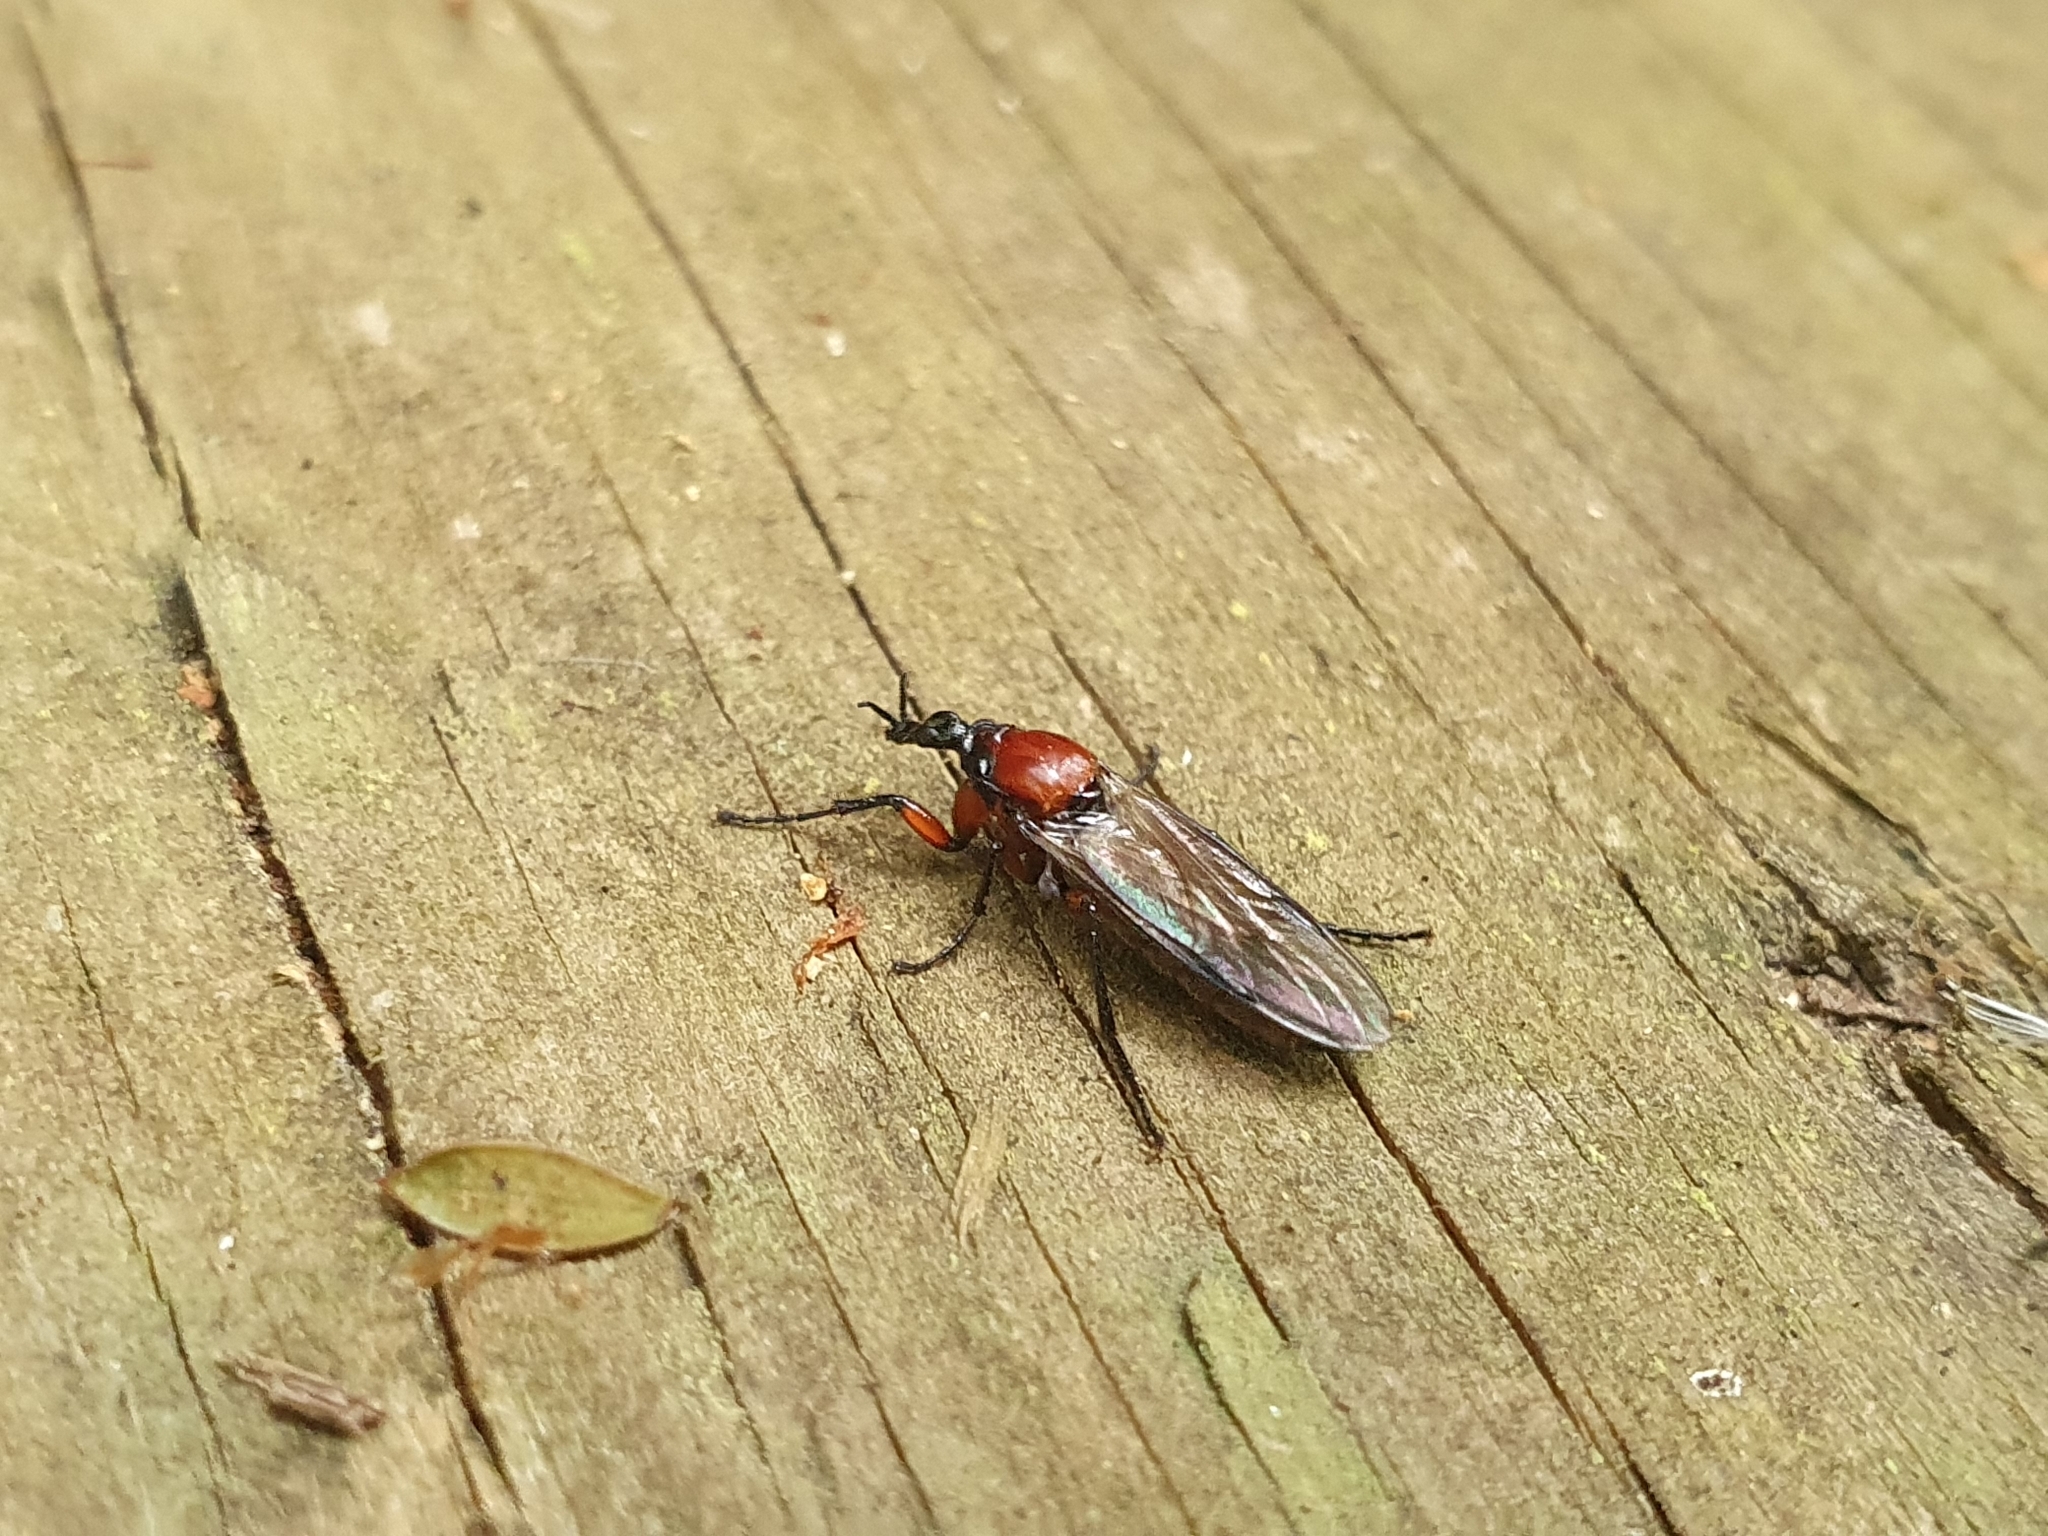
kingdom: Animalia
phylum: Arthropoda
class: Insecta
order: Diptera
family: Bibionidae
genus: Dilophus
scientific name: Dilophus nigrostigma
